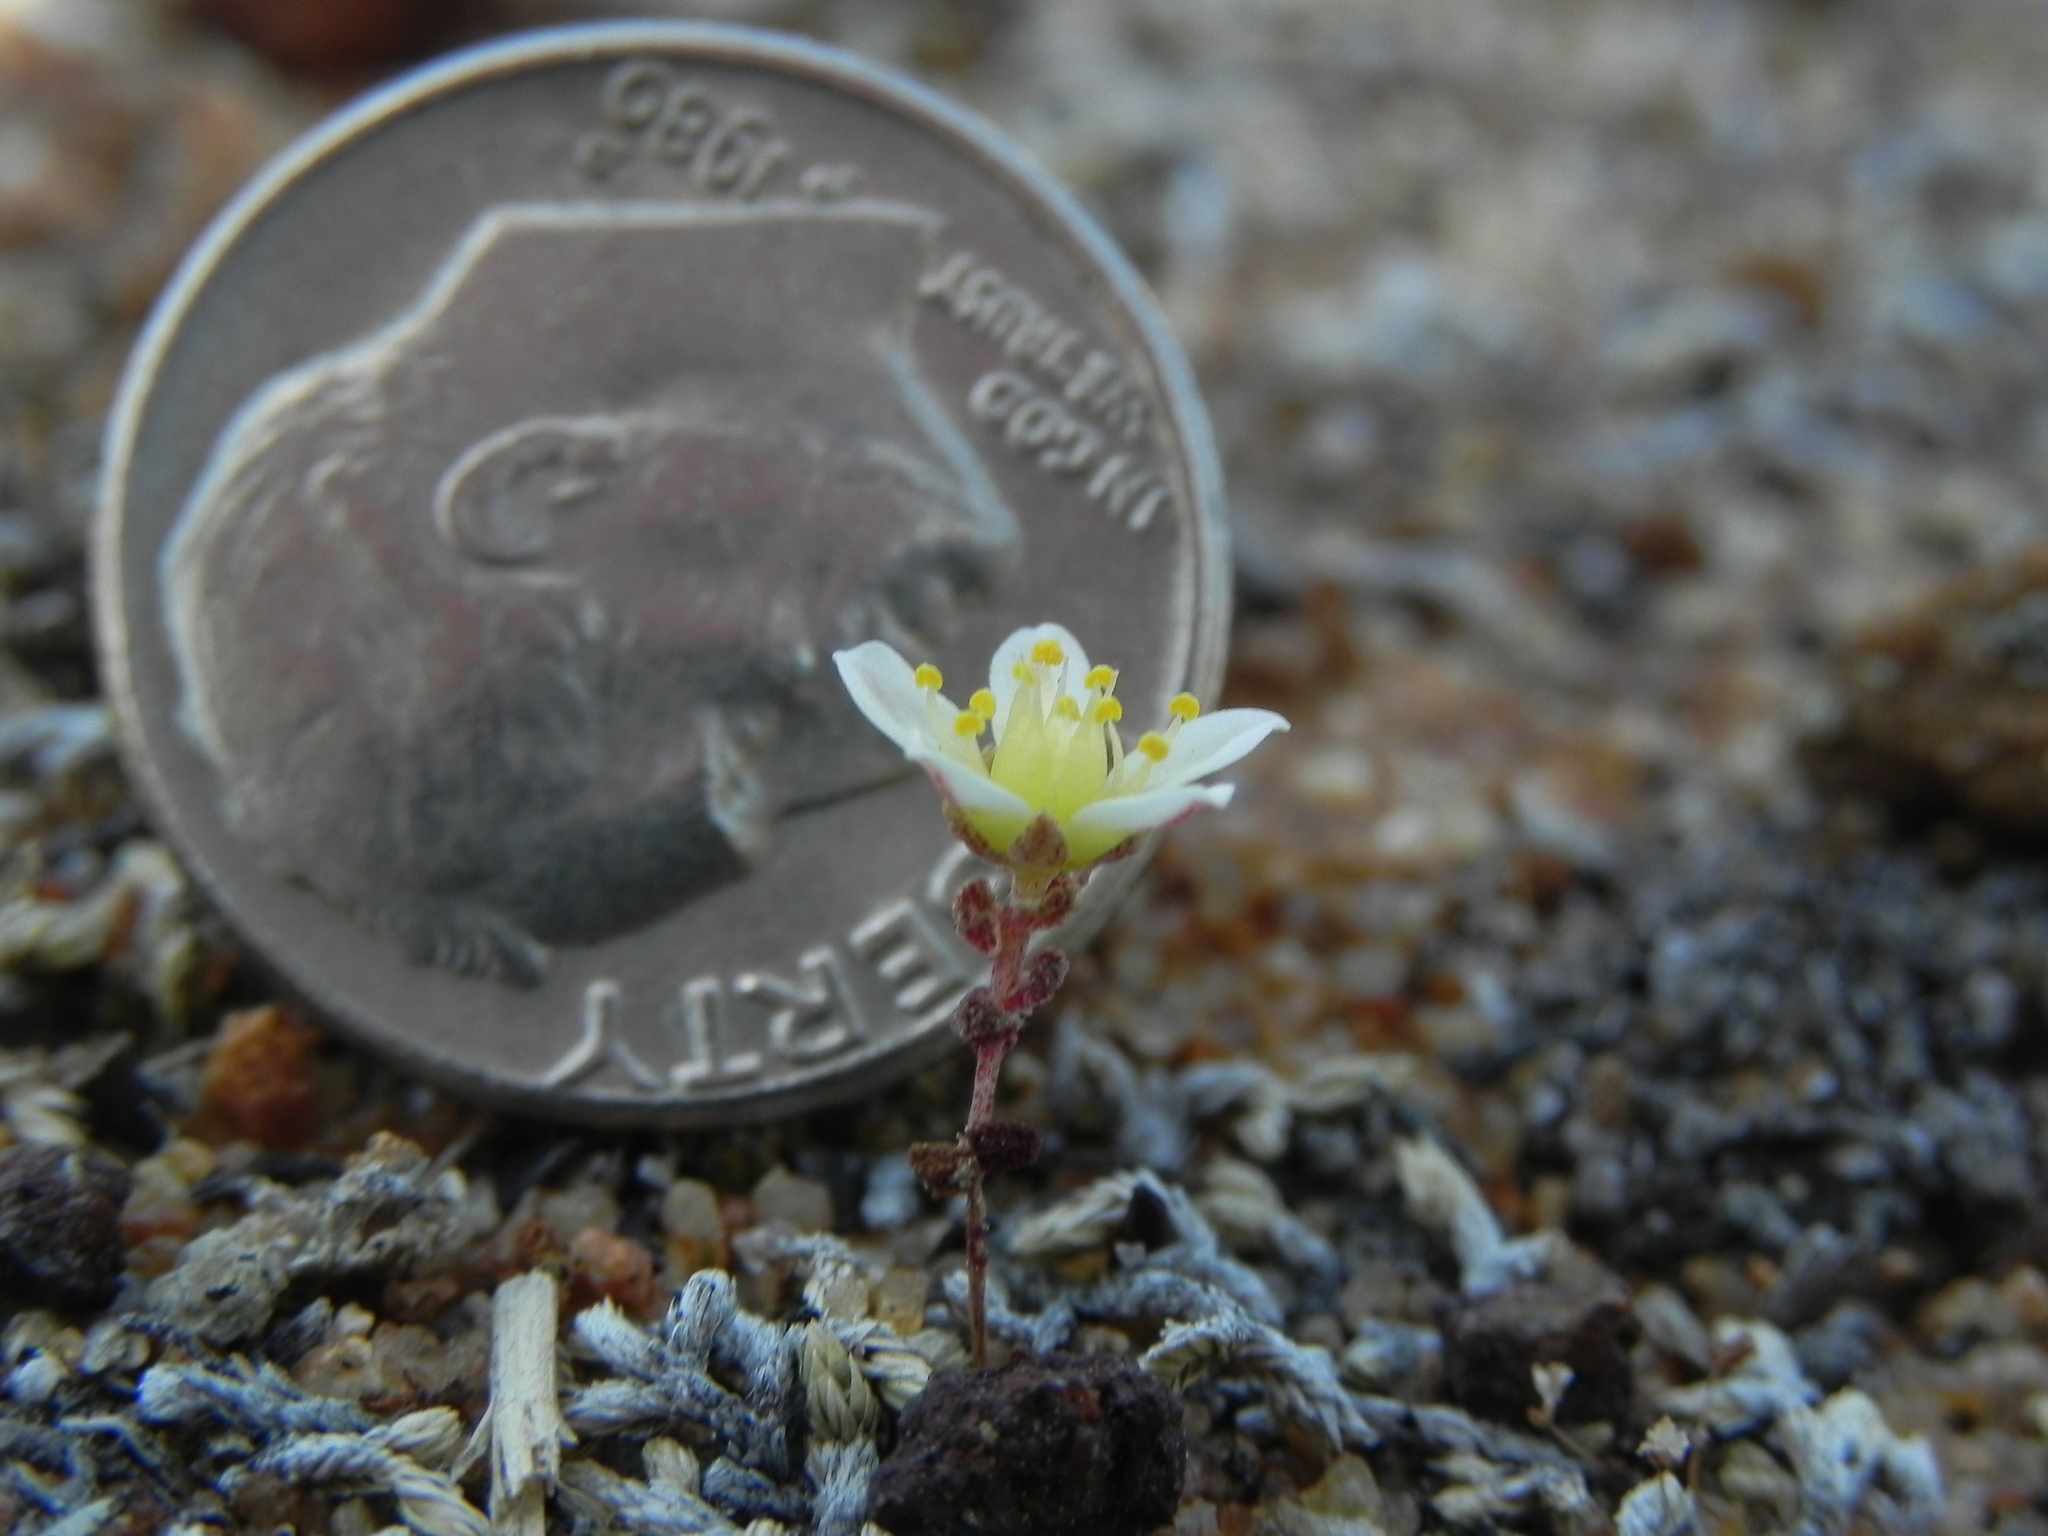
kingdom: Plantae
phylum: Tracheophyta
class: Magnoliopsida
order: Saxifragales
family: Crassulaceae
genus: Dudleya
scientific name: Dudleya blochmaniae
